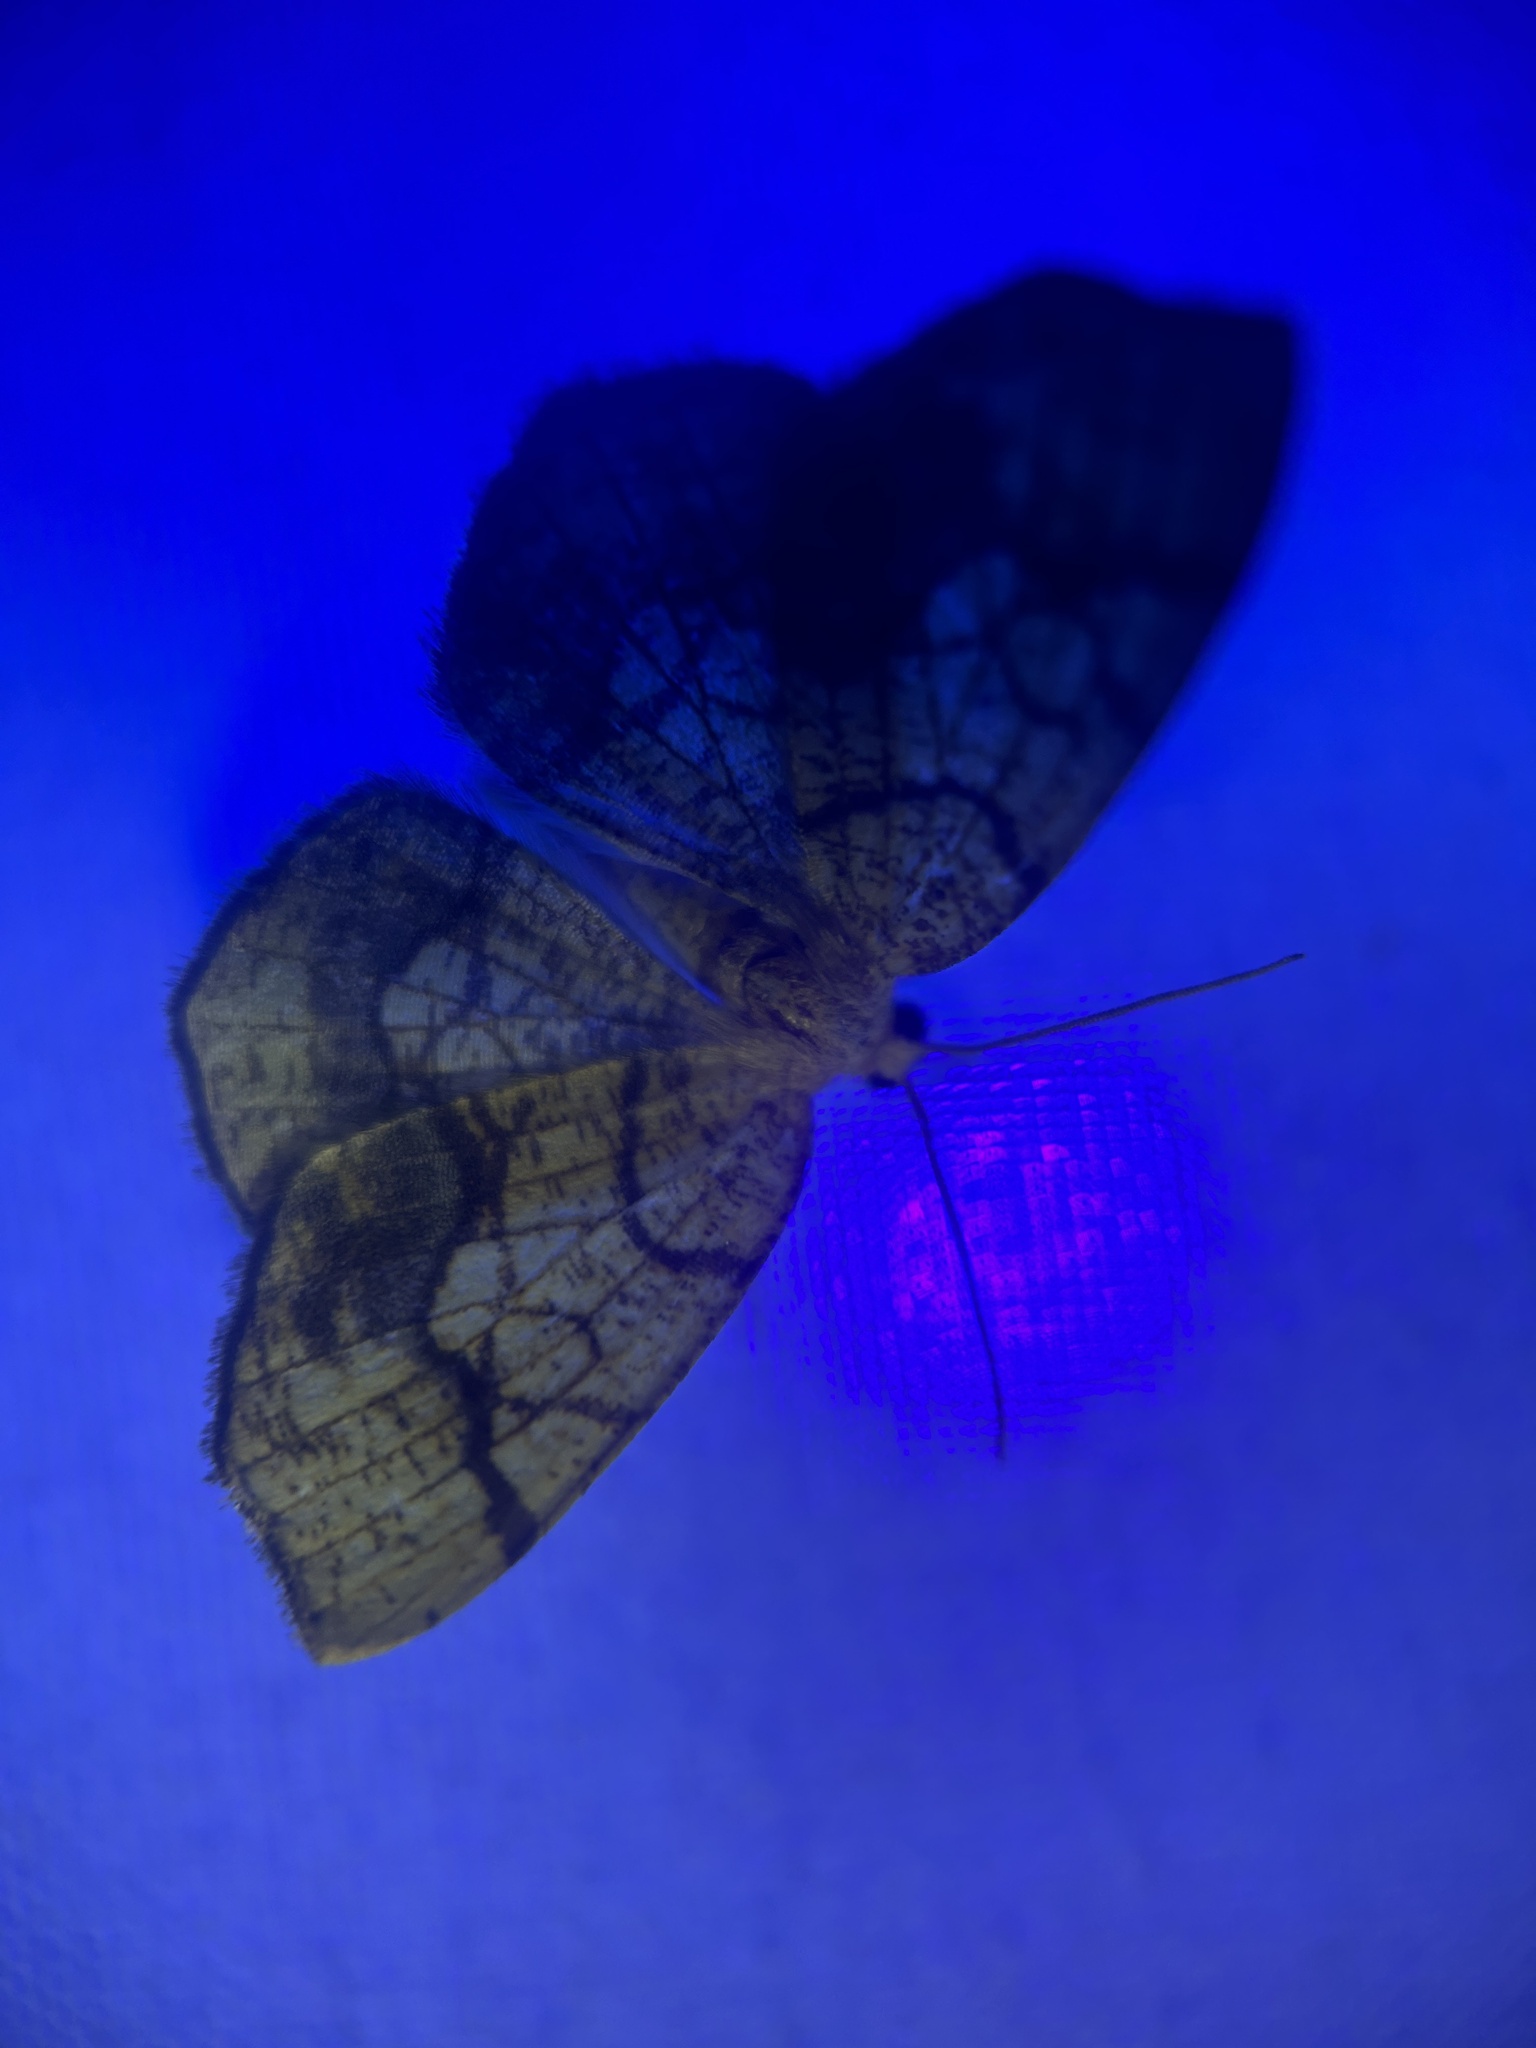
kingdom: Animalia
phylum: Arthropoda
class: Insecta
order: Lepidoptera
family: Geometridae
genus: Nematocampa
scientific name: Nematocampa resistaria
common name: Horned spanworm moth
